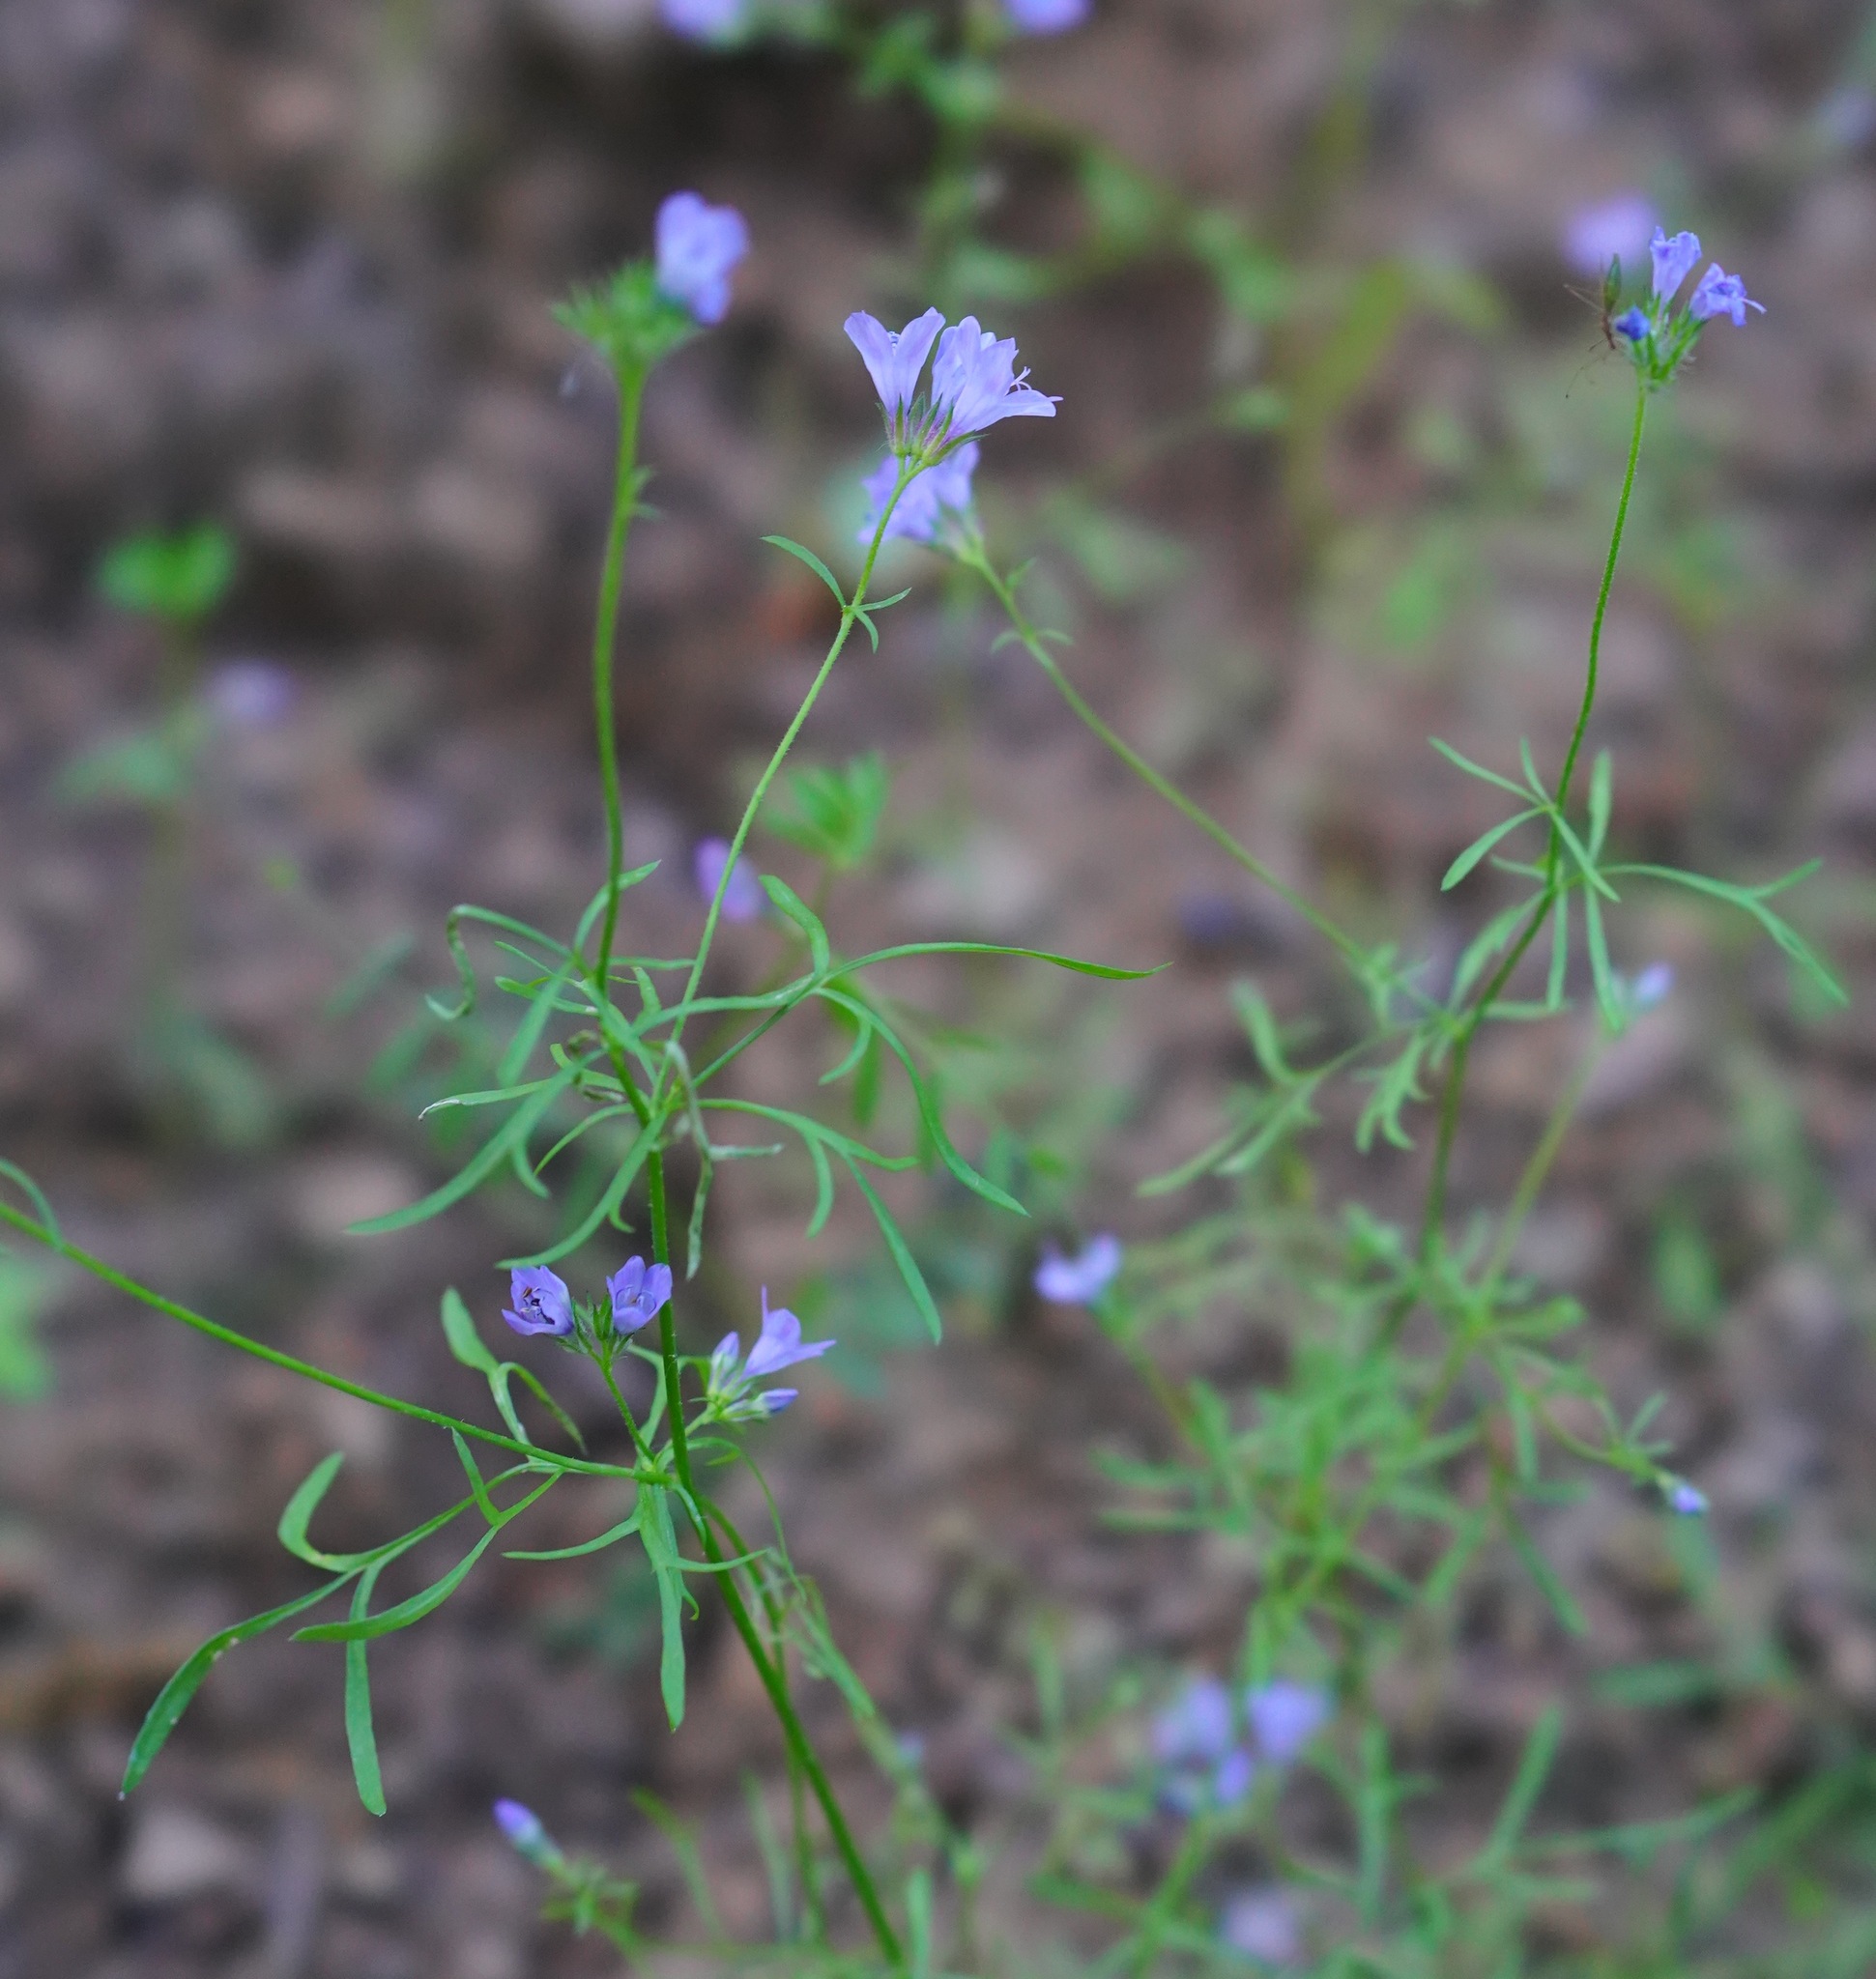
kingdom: Plantae
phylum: Tracheophyta
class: Magnoliopsida
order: Ericales
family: Polemoniaceae
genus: Gilia
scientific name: Gilia achilleifolia
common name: California gily-flower
